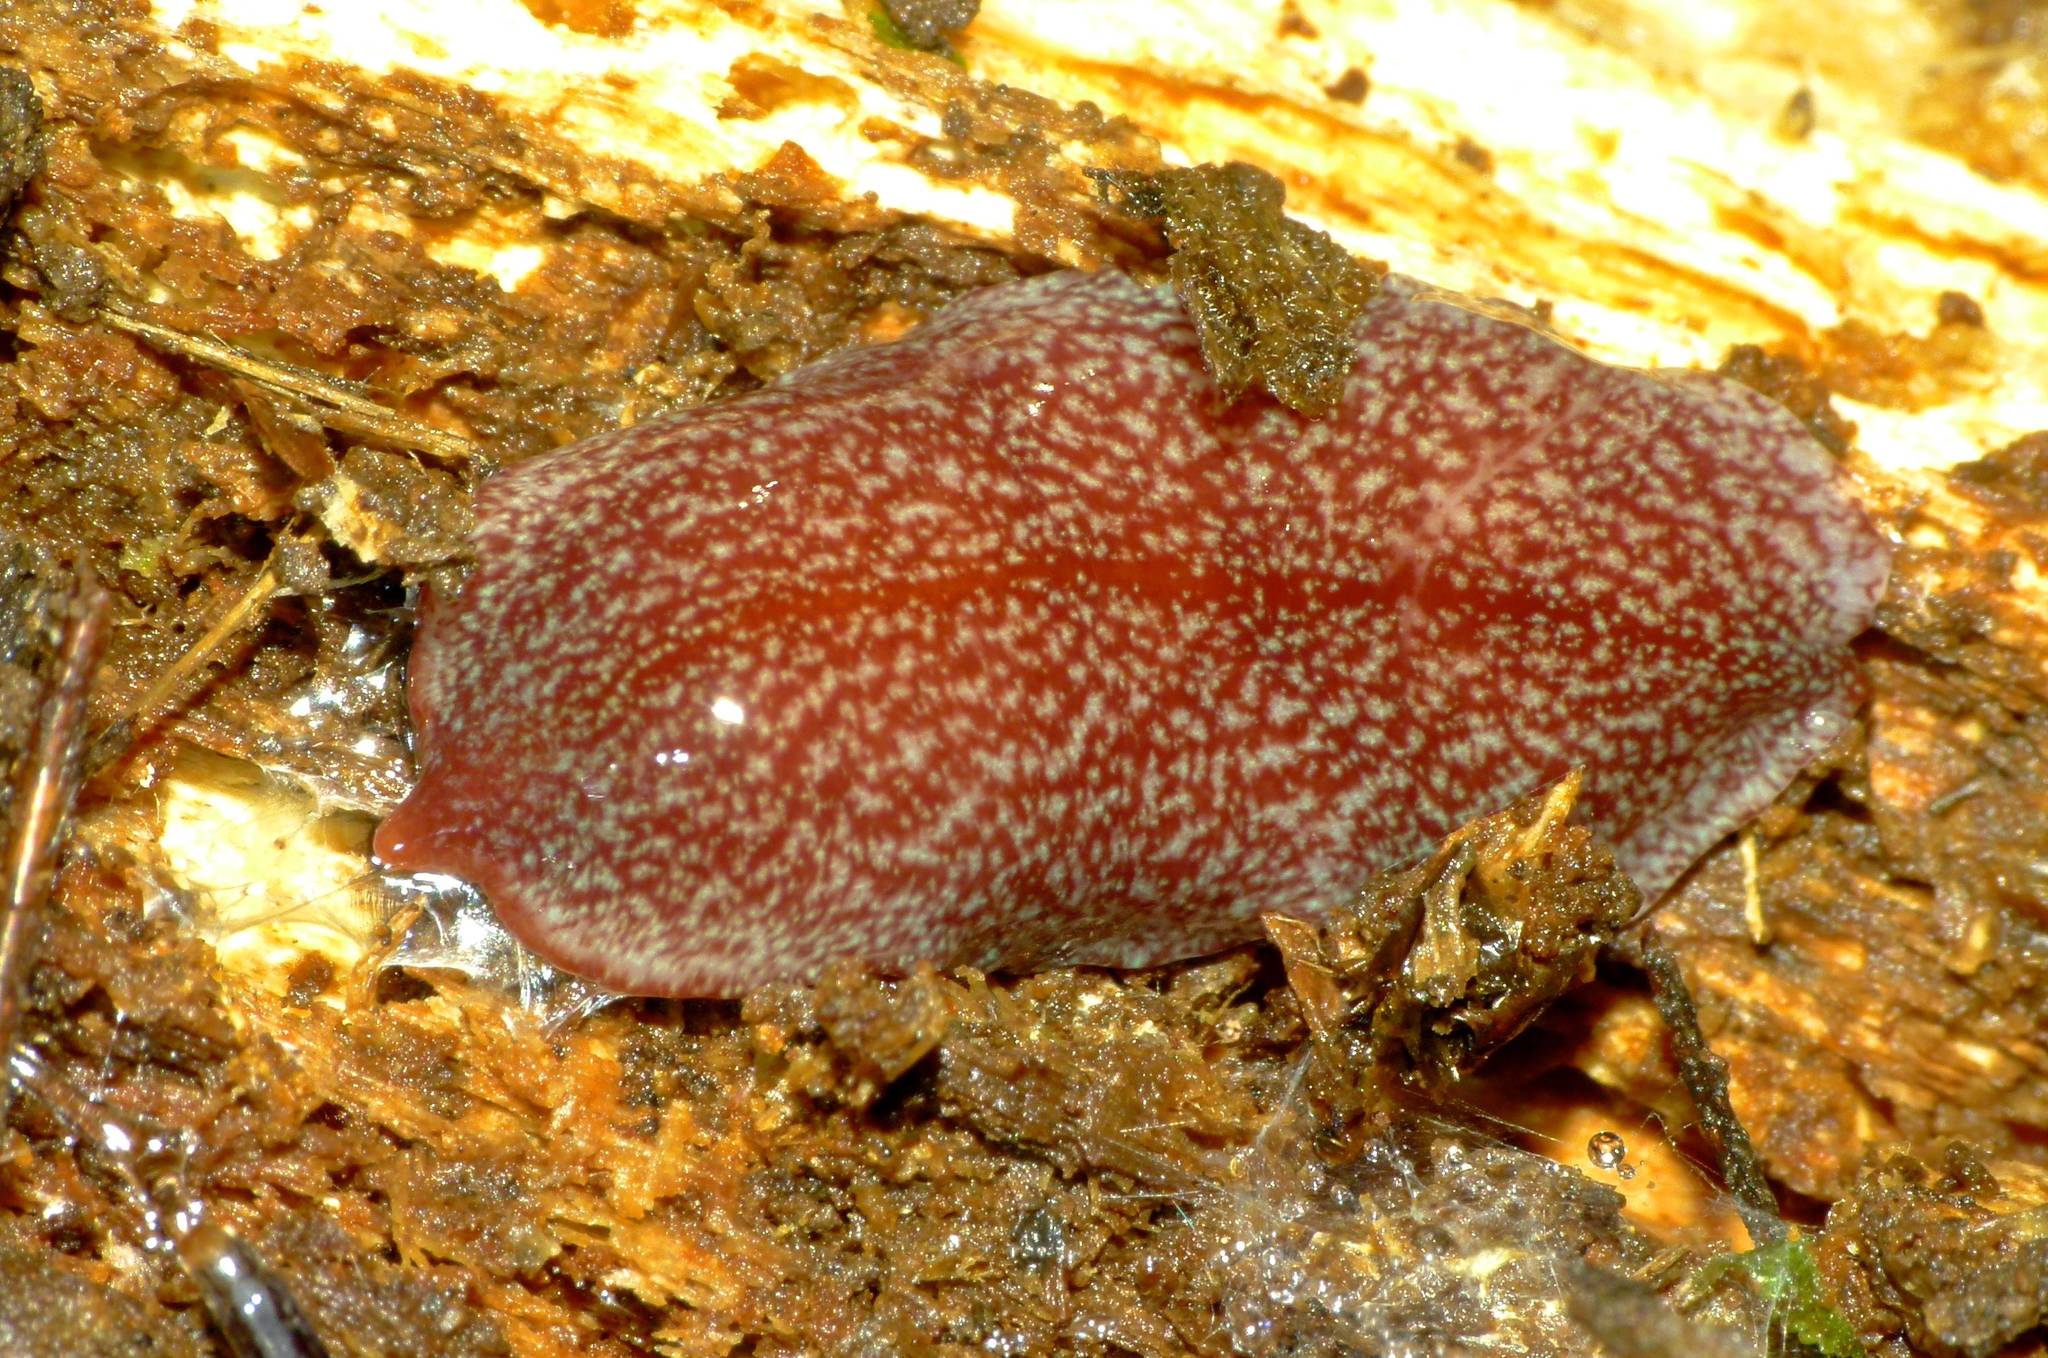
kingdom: Animalia
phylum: Platyhelminthes
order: Tricladida
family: Geoplanidae
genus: Australopacifica
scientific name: Australopacifica spectabilis
